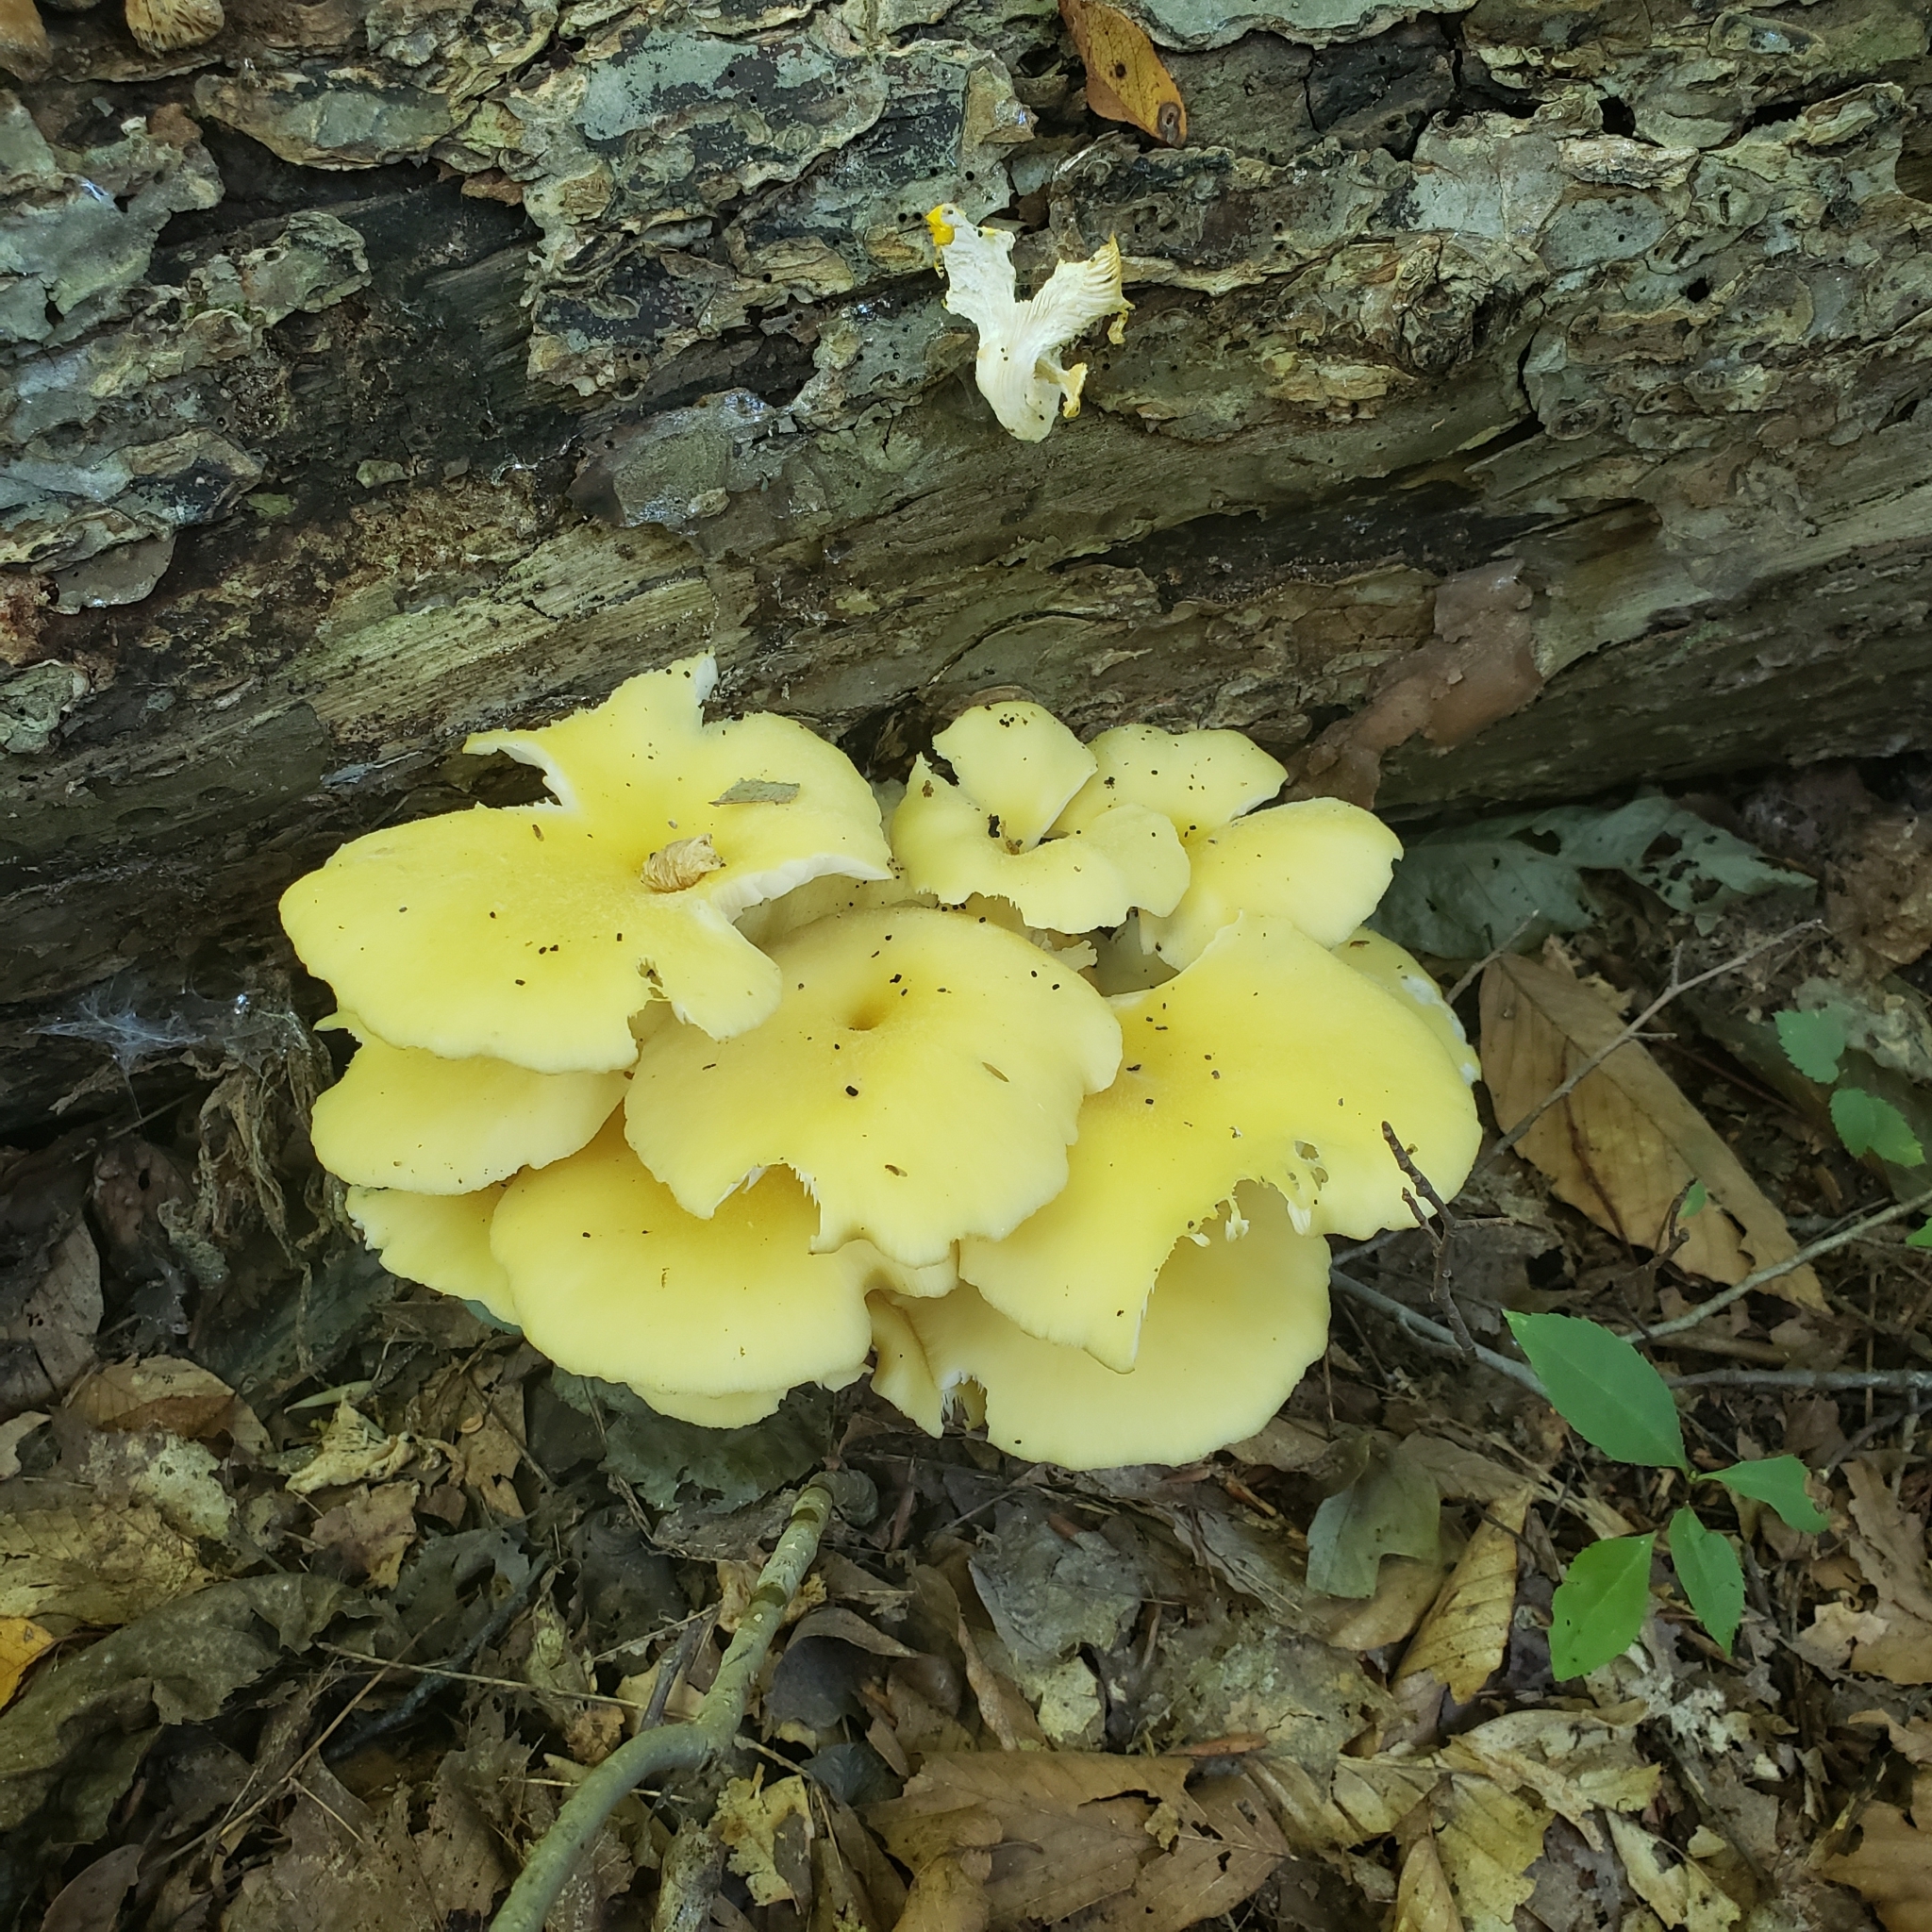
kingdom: Fungi
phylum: Basidiomycota
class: Agaricomycetes
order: Agaricales
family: Pleurotaceae
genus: Pleurotus
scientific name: Pleurotus citrinopileatus
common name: Golden oyster mushroom
